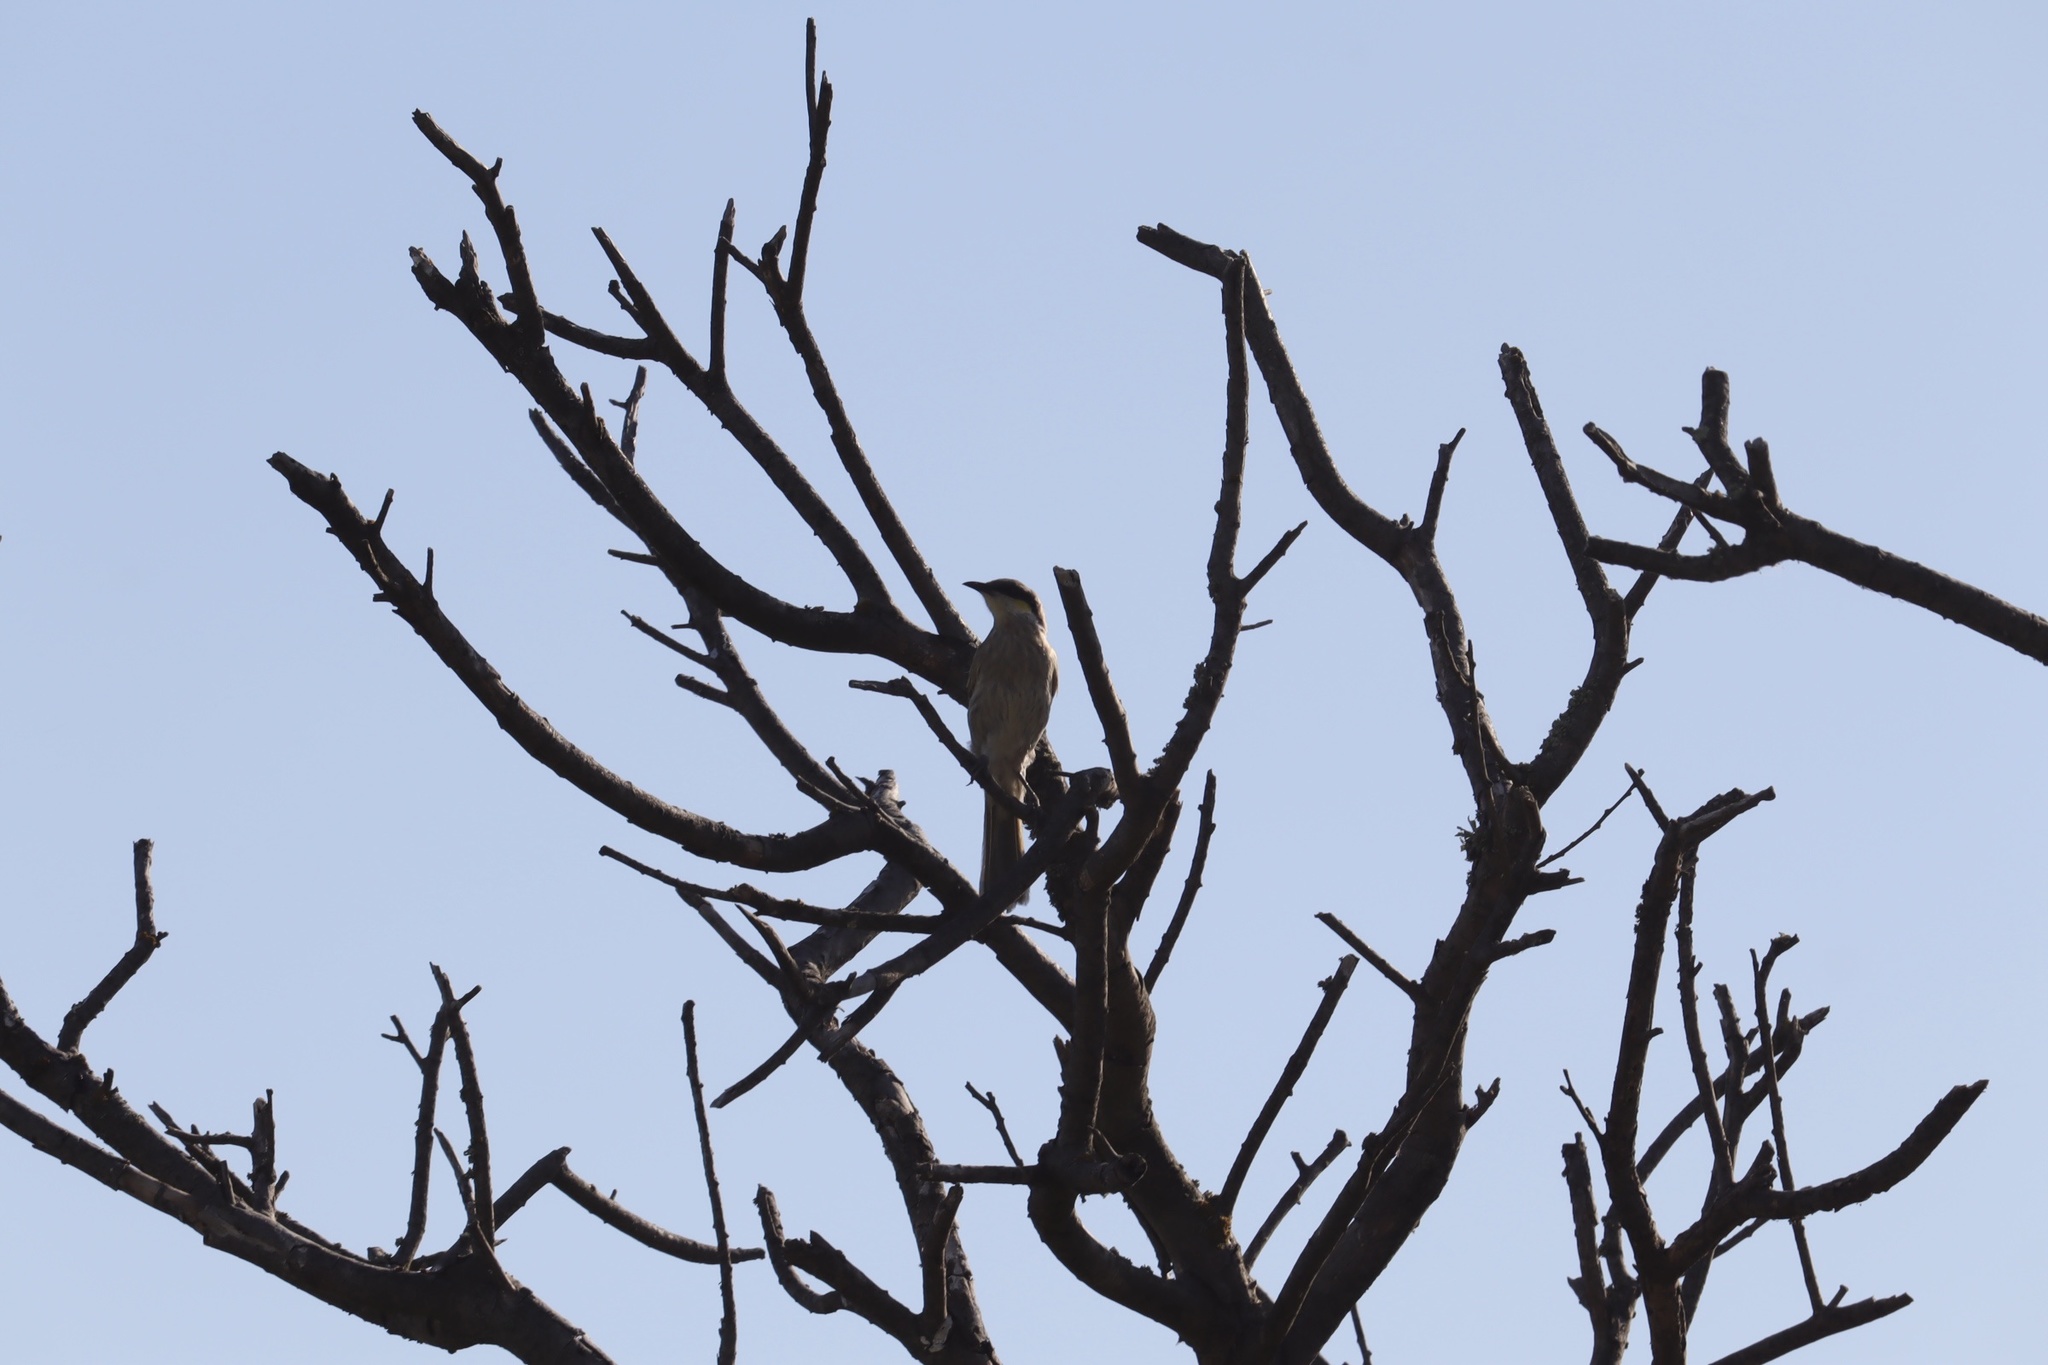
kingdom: Animalia
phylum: Chordata
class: Aves
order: Passeriformes
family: Meliphagidae
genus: Gavicalis
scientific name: Gavicalis virescens
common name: Singing honeyeater
